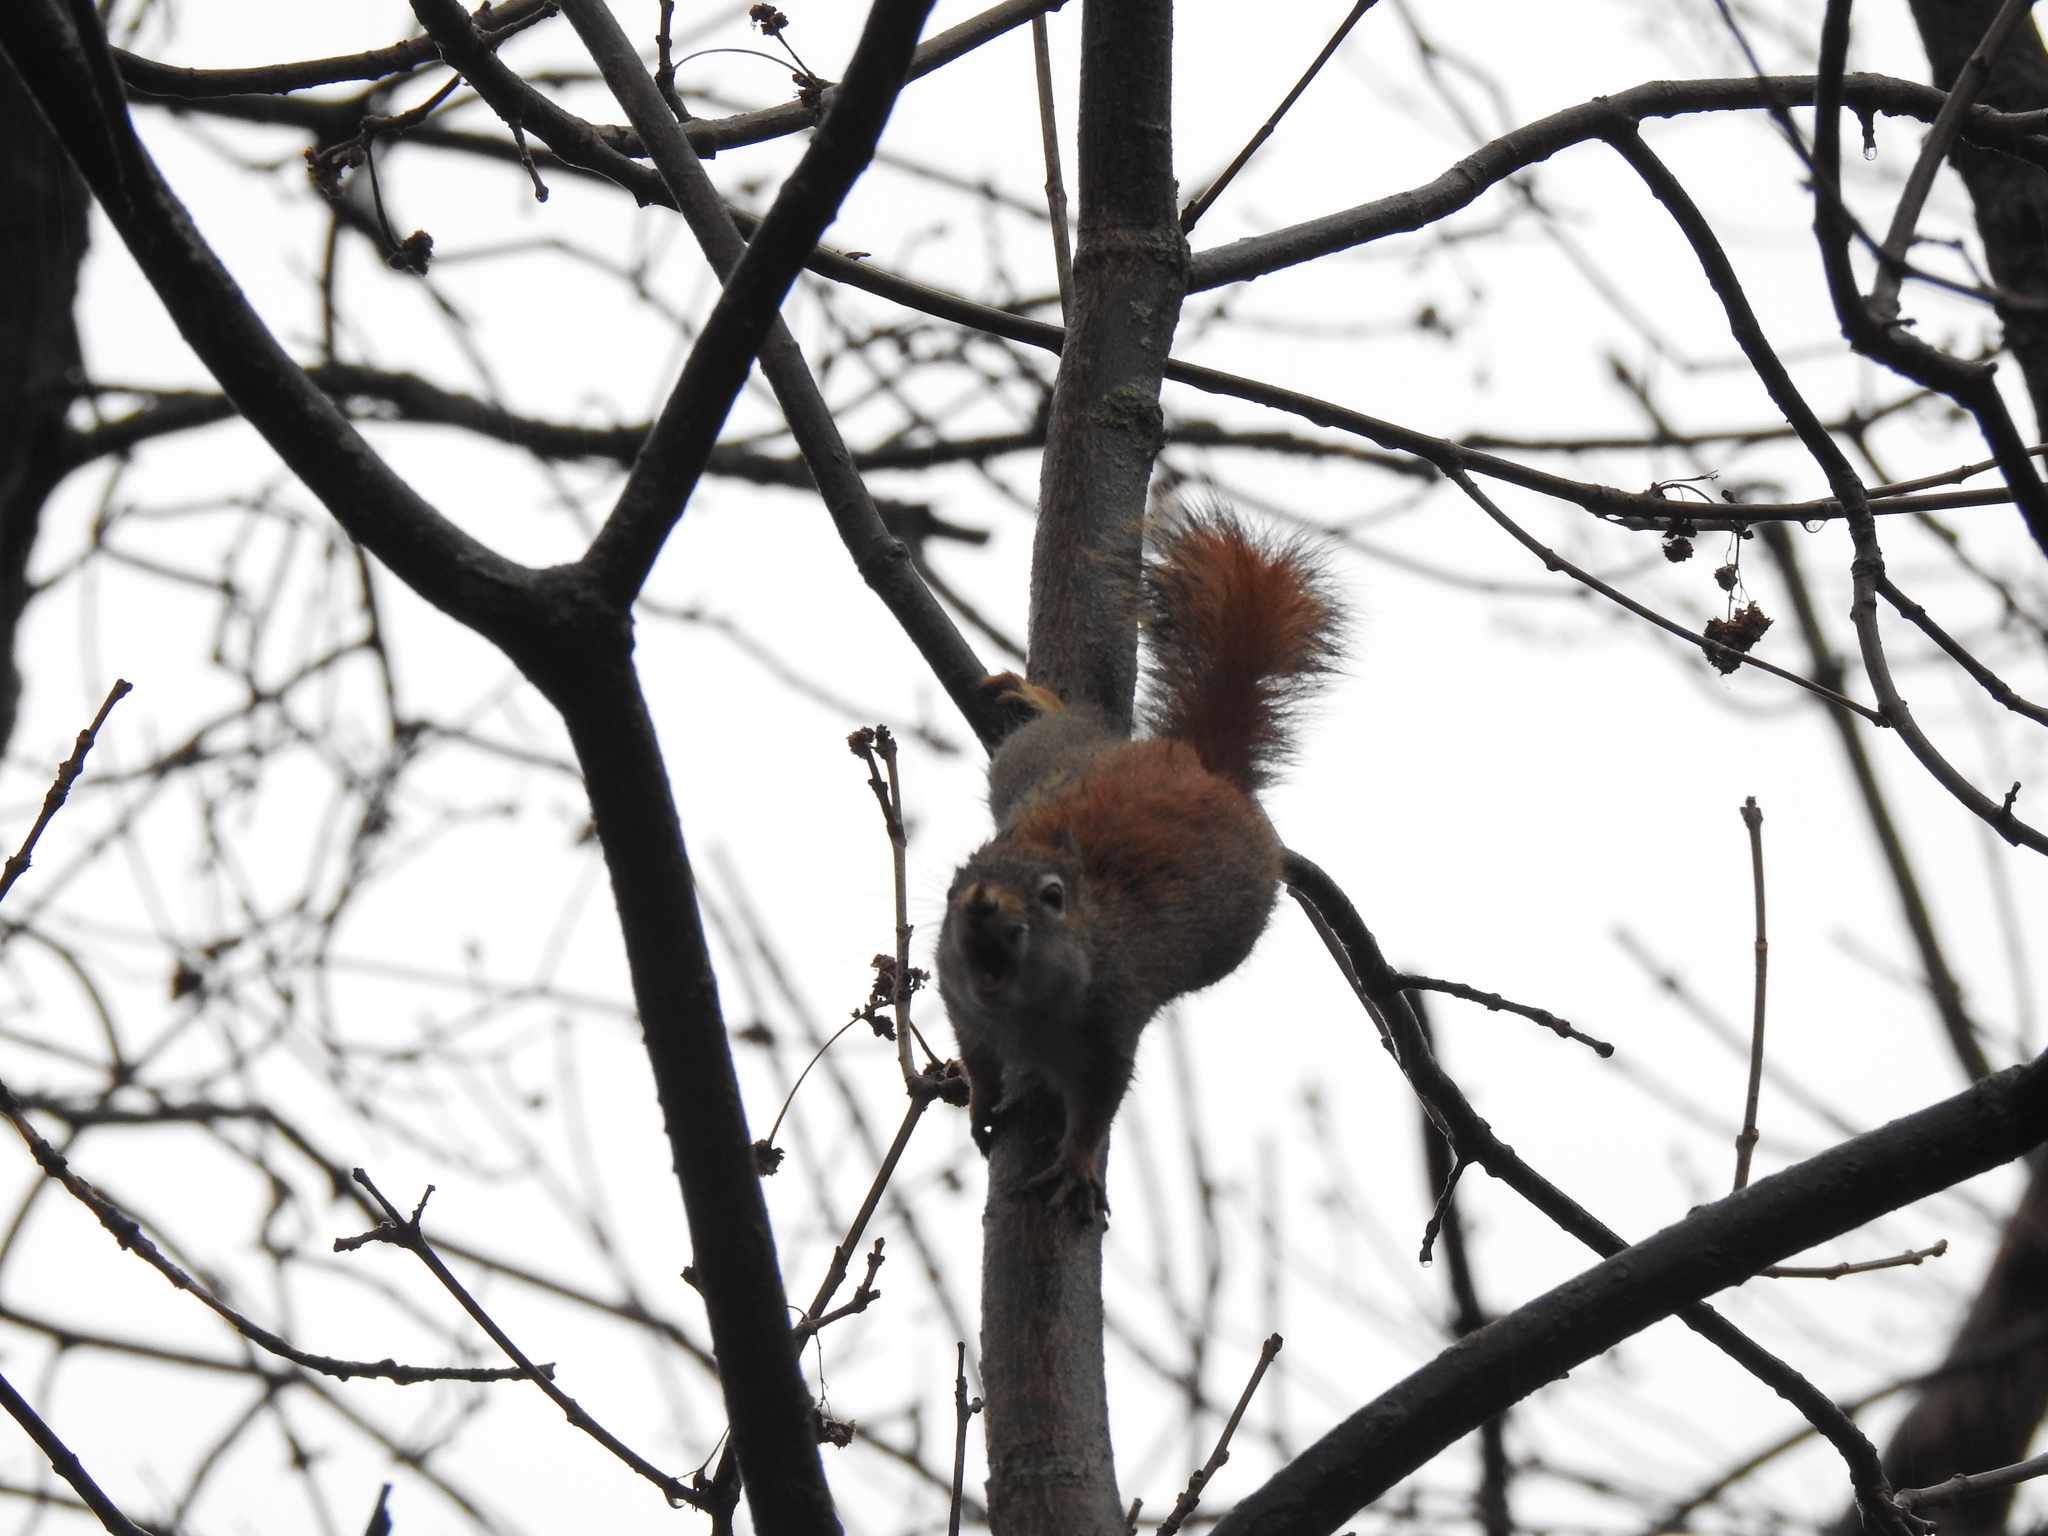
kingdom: Animalia
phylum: Chordata
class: Mammalia
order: Rodentia
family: Sciuridae
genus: Tamiasciurus
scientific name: Tamiasciurus hudsonicus
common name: Red squirrel
